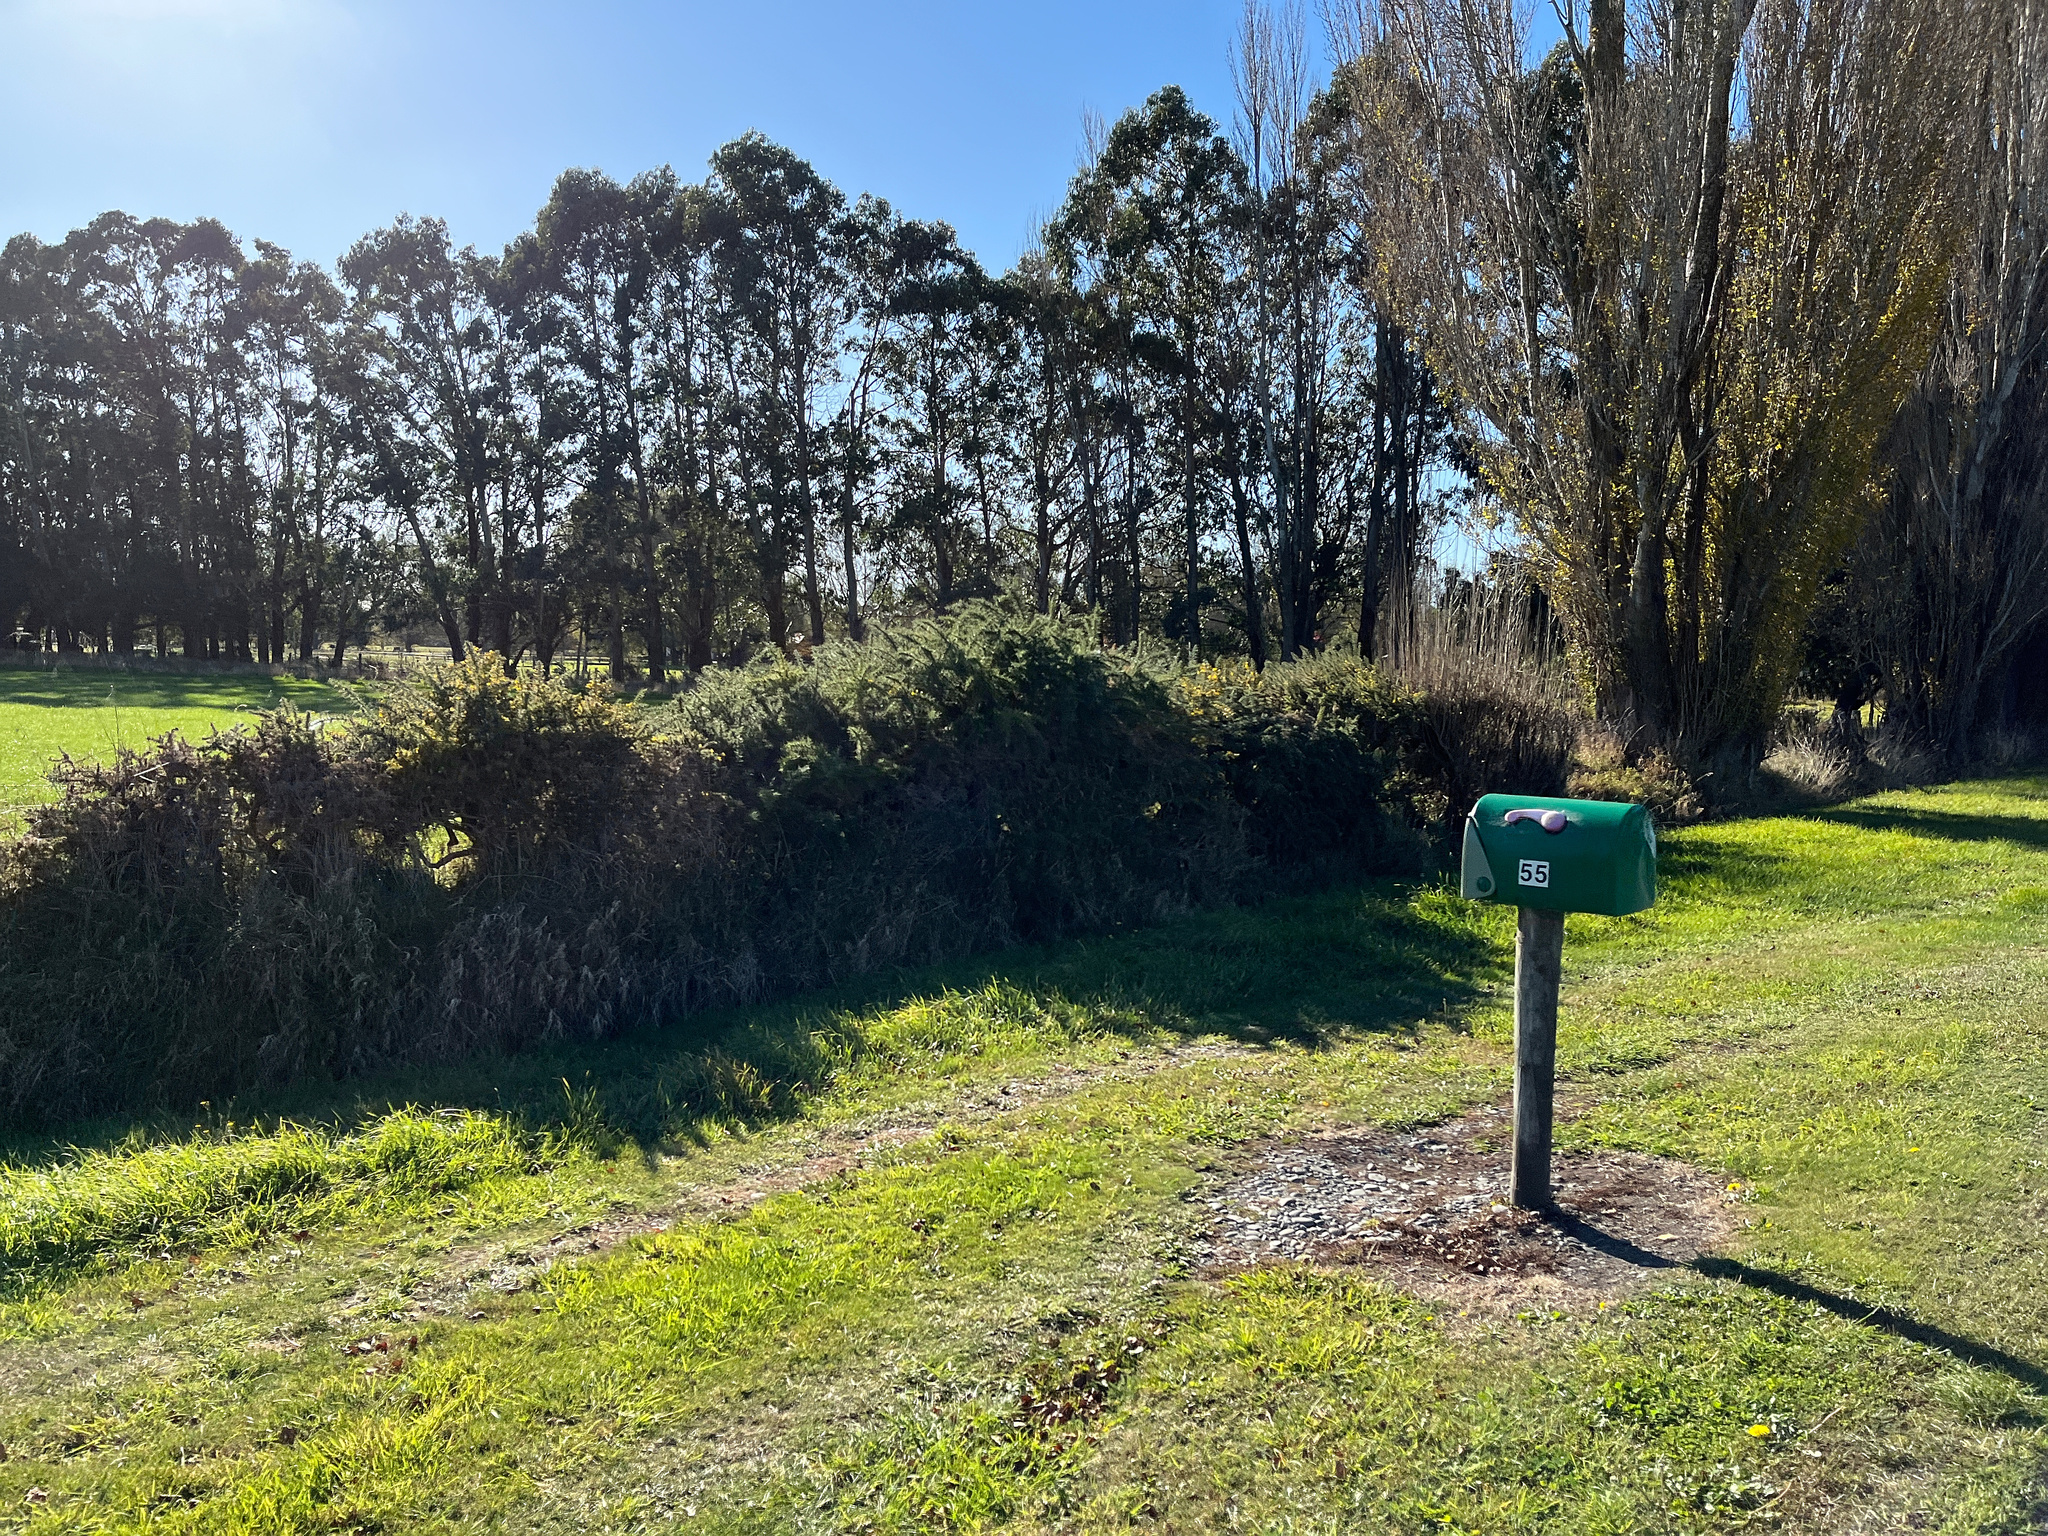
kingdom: Plantae
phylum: Tracheophyta
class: Magnoliopsida
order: Fabales
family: Fabaceae
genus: Ulex
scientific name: Ulex europaeus
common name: Common gorse
